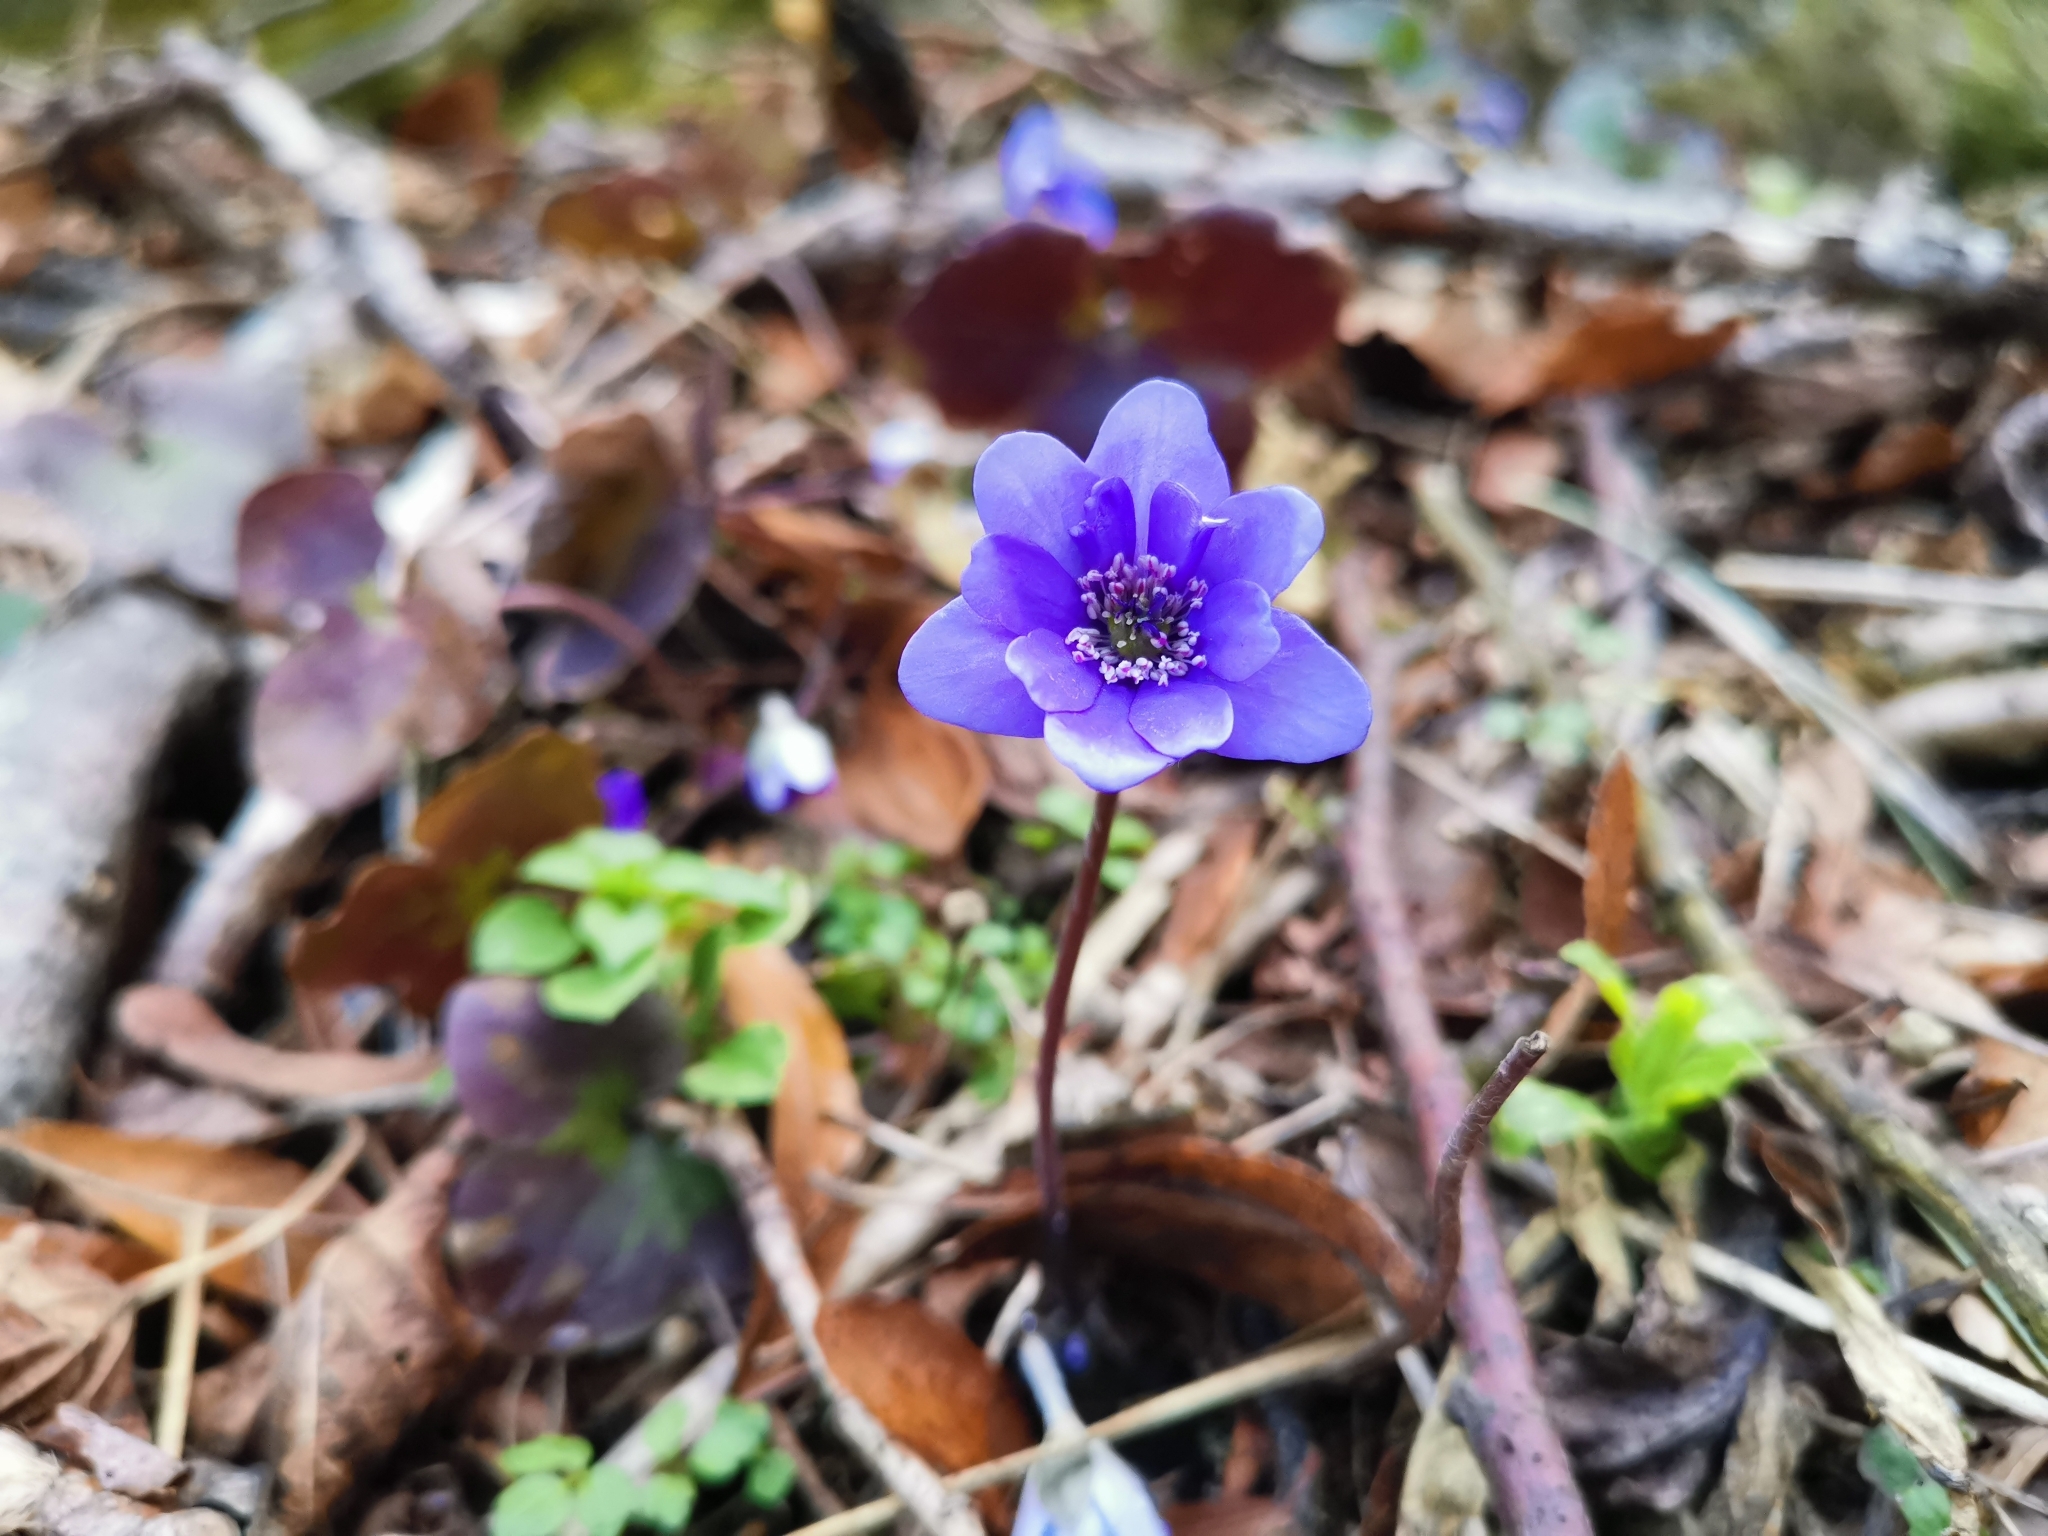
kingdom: Plantae
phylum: Tracheophyta
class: Magnoliopsida
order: Ranunculales
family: Ranunculaceae
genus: Hepatica
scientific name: Hepatica nobilis
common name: Liverleaf
